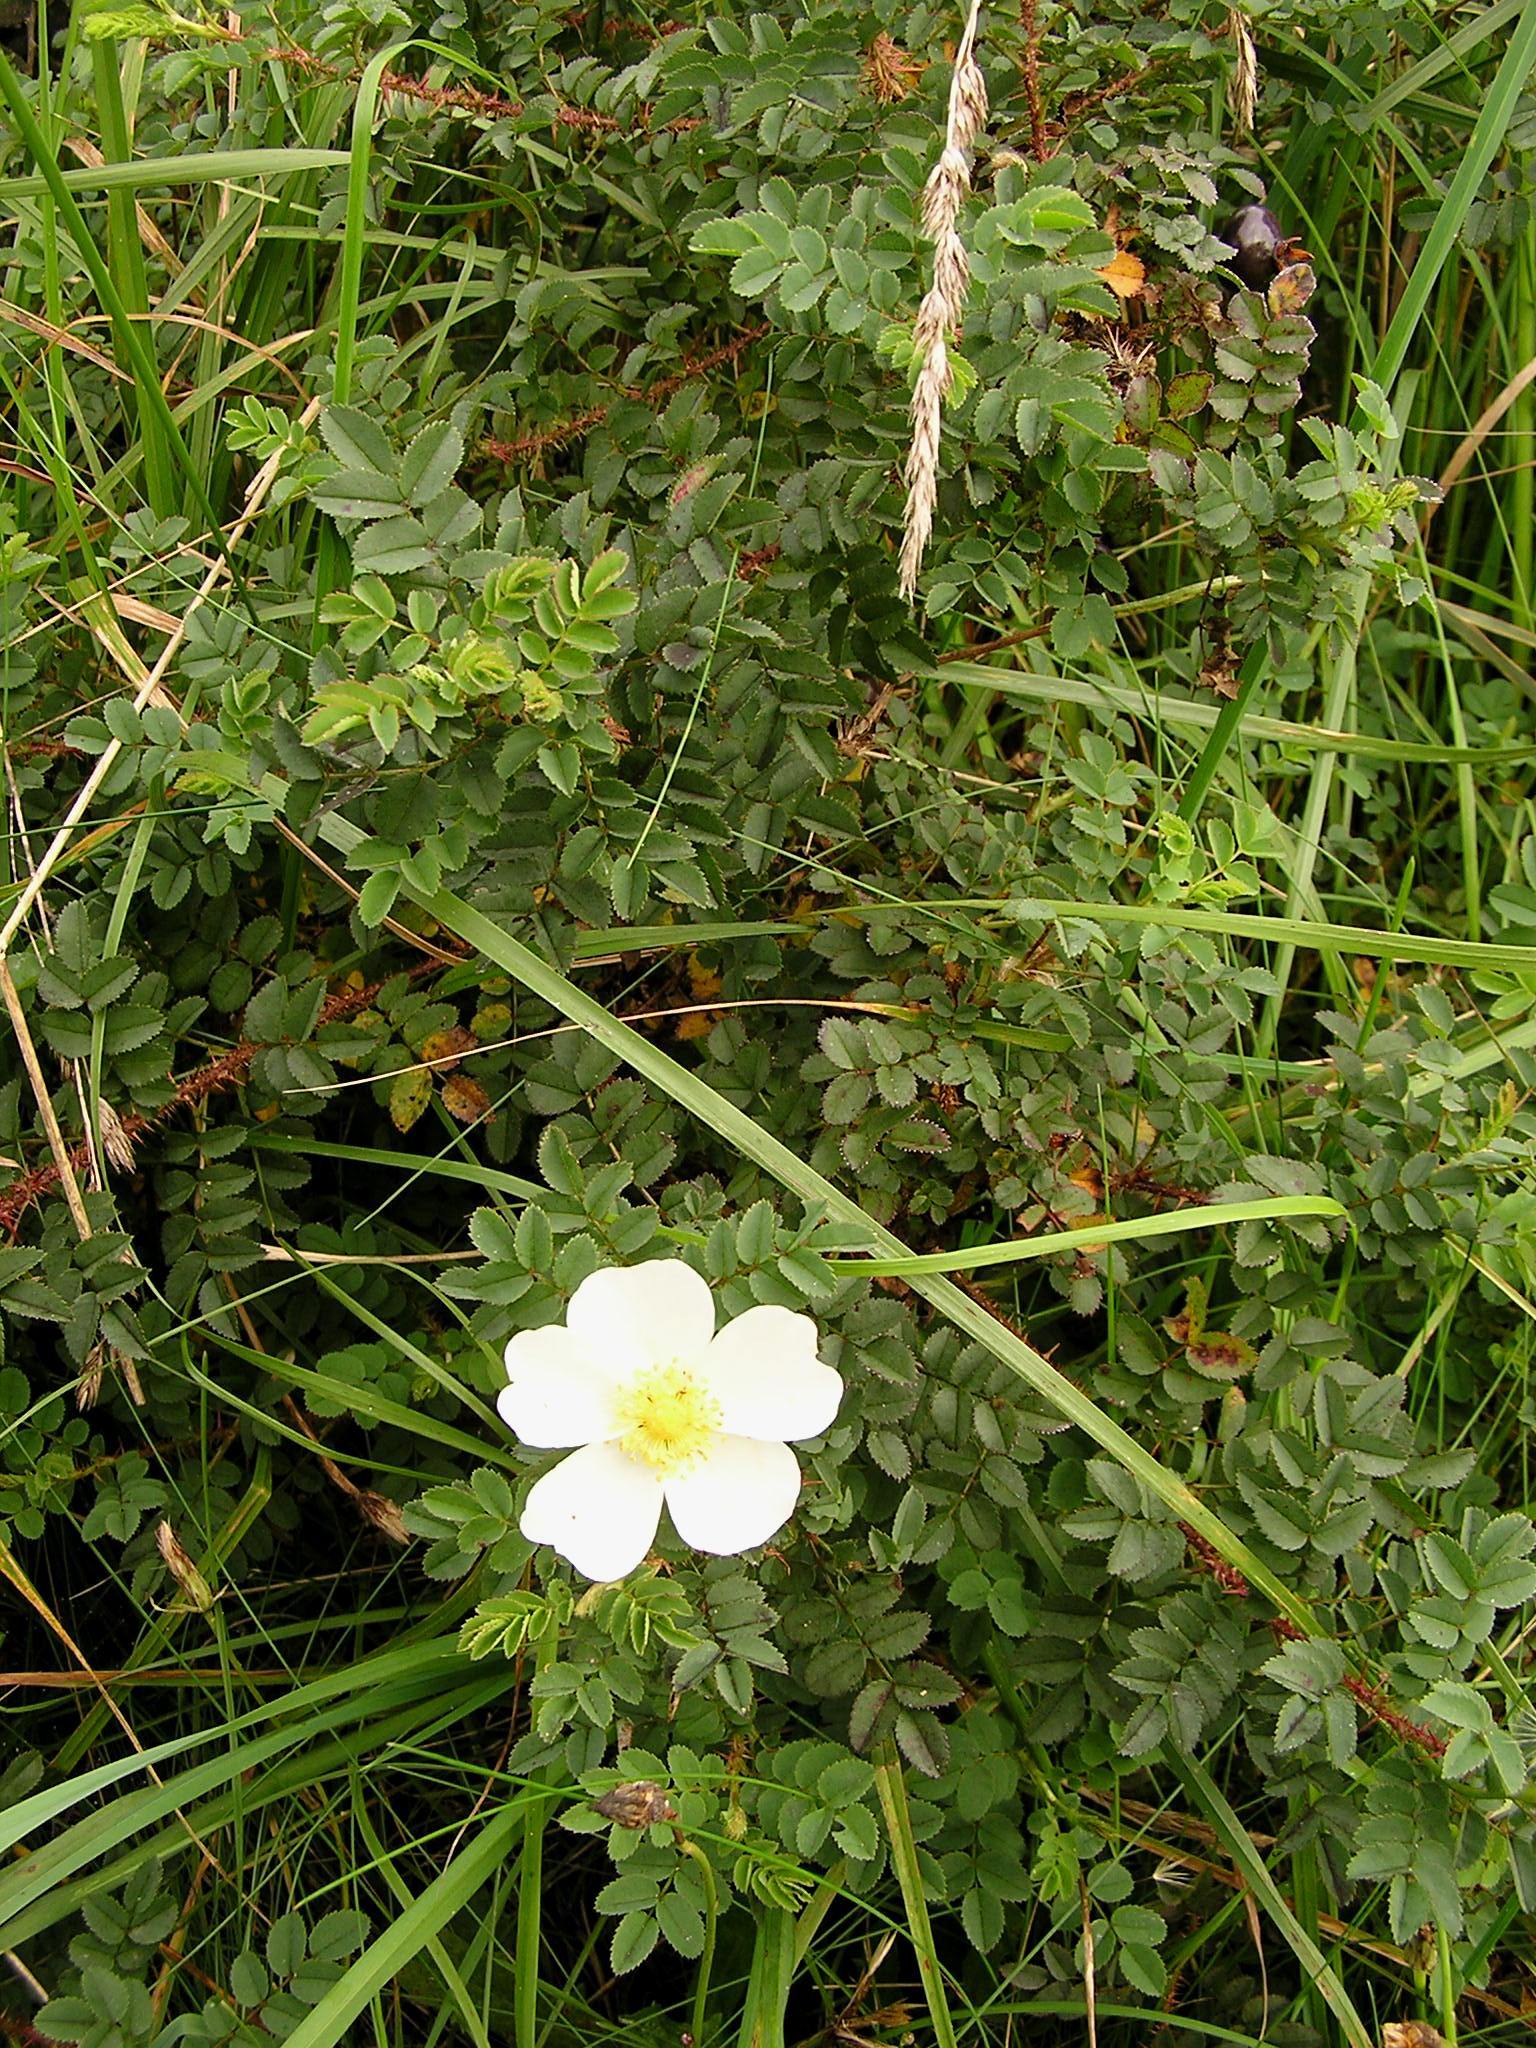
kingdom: Plantae
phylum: Tracheophyta
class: Magnoliopsida
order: Rosales
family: Rosaceae
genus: Rosa
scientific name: Rosa spinosissima
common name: Burnet rose
